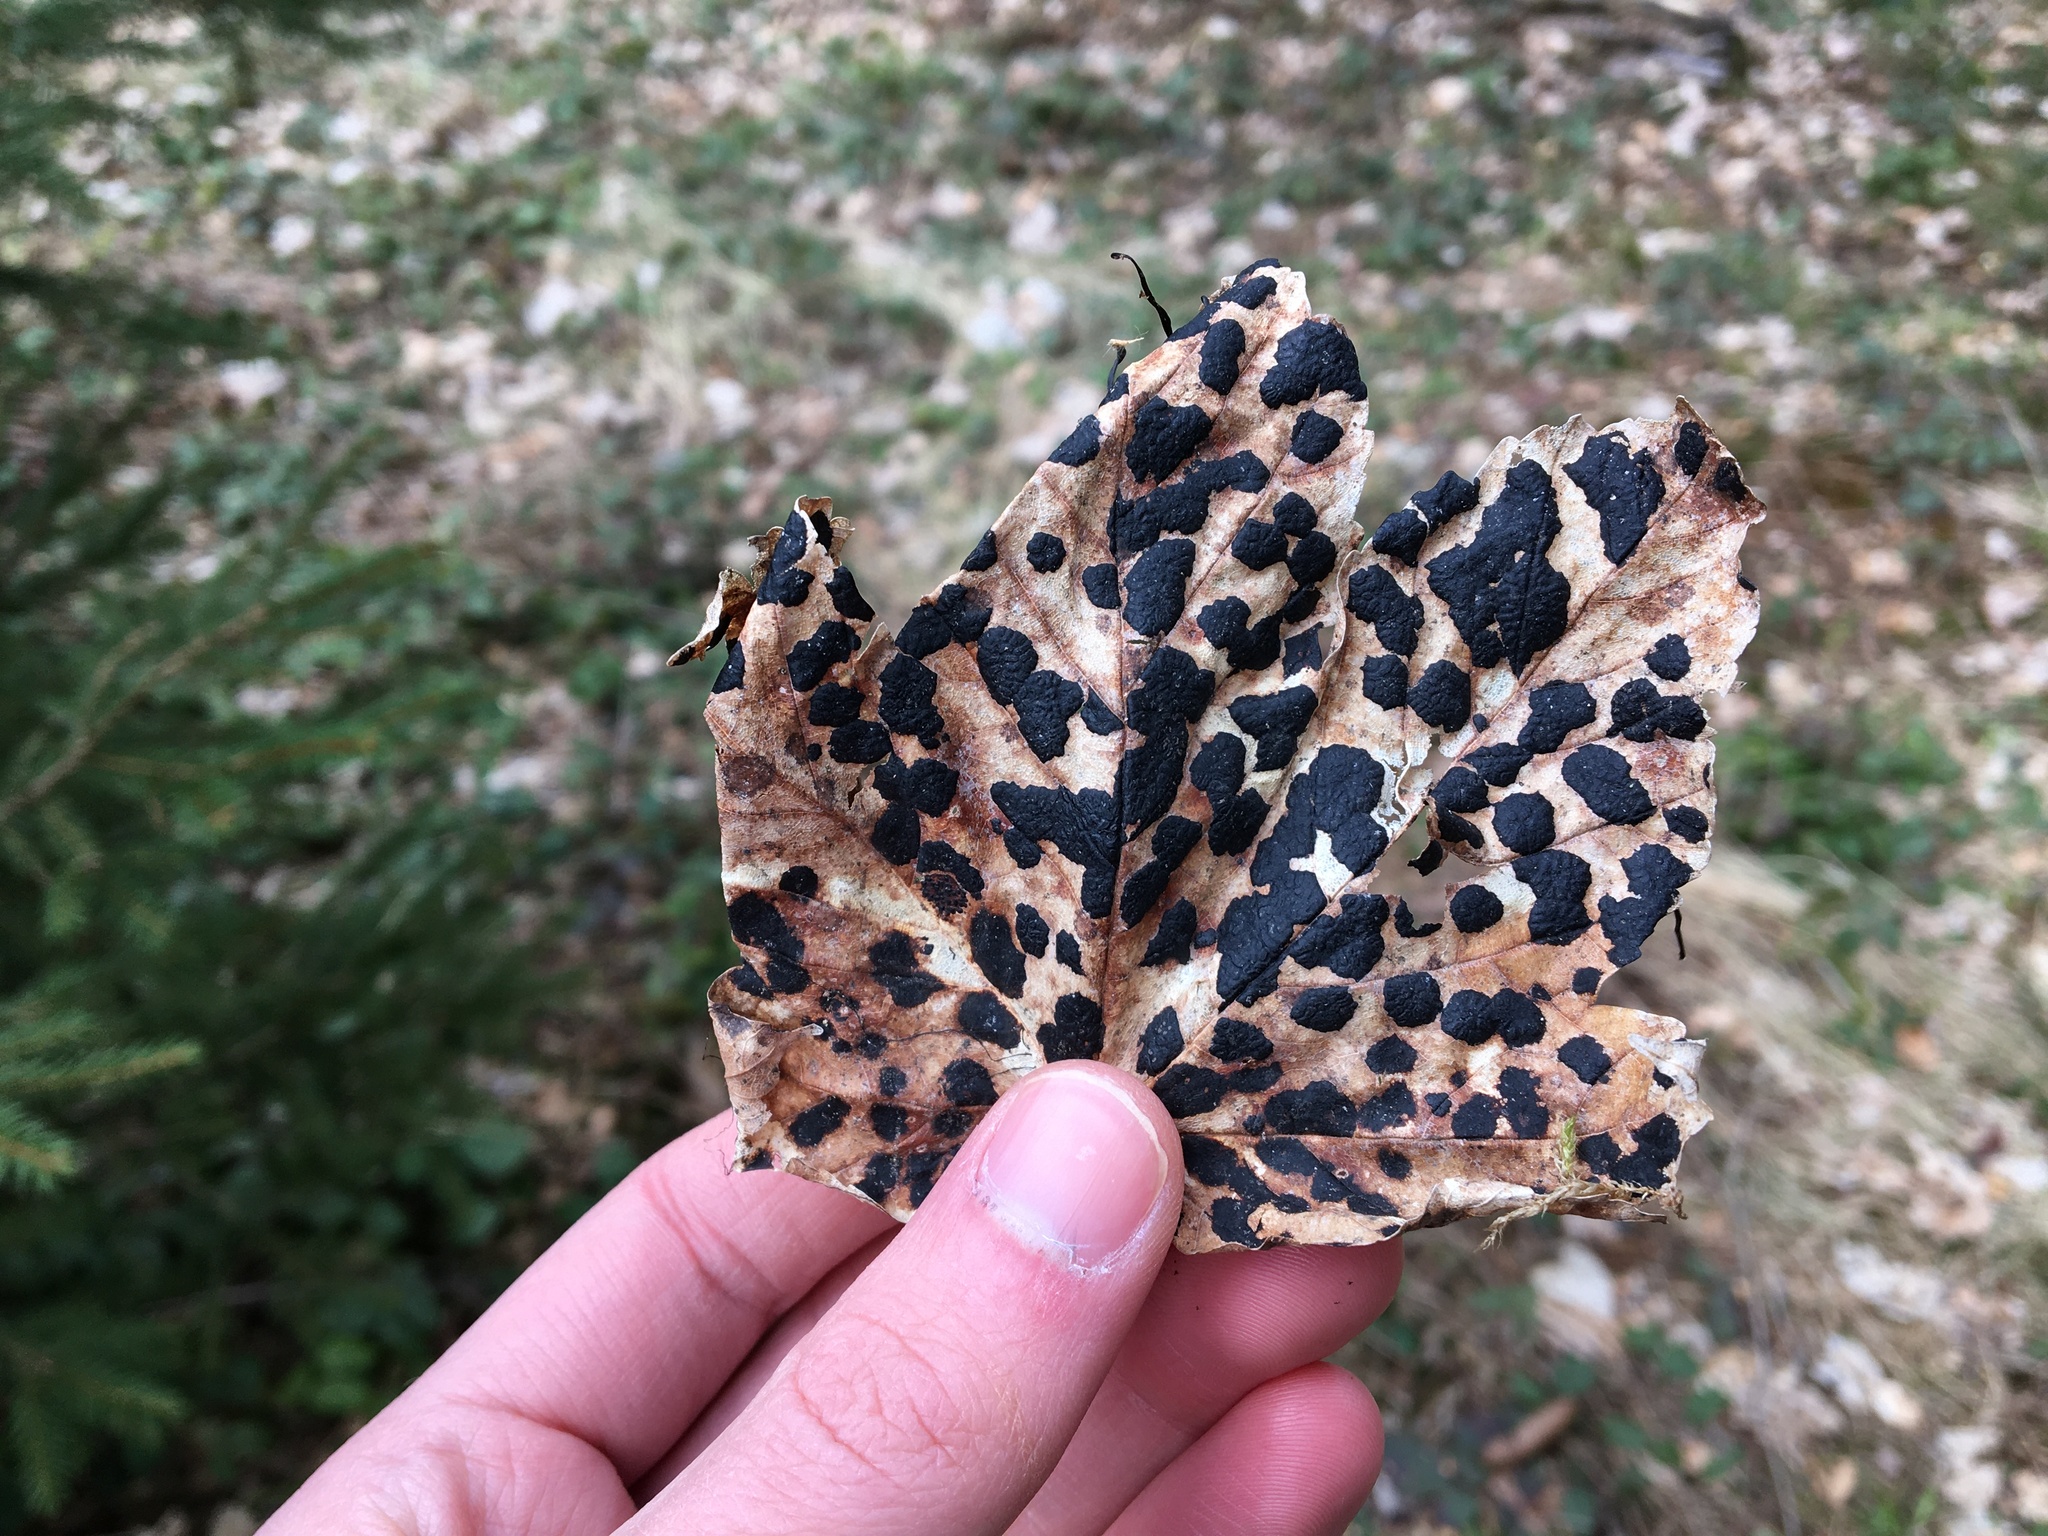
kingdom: Fungi
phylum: Ascomycota
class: Leotiomycetes
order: Rhytismatales
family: Rhytismataceae
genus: Rhytisma
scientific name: Rhytisma acerinum
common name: European tar spot
